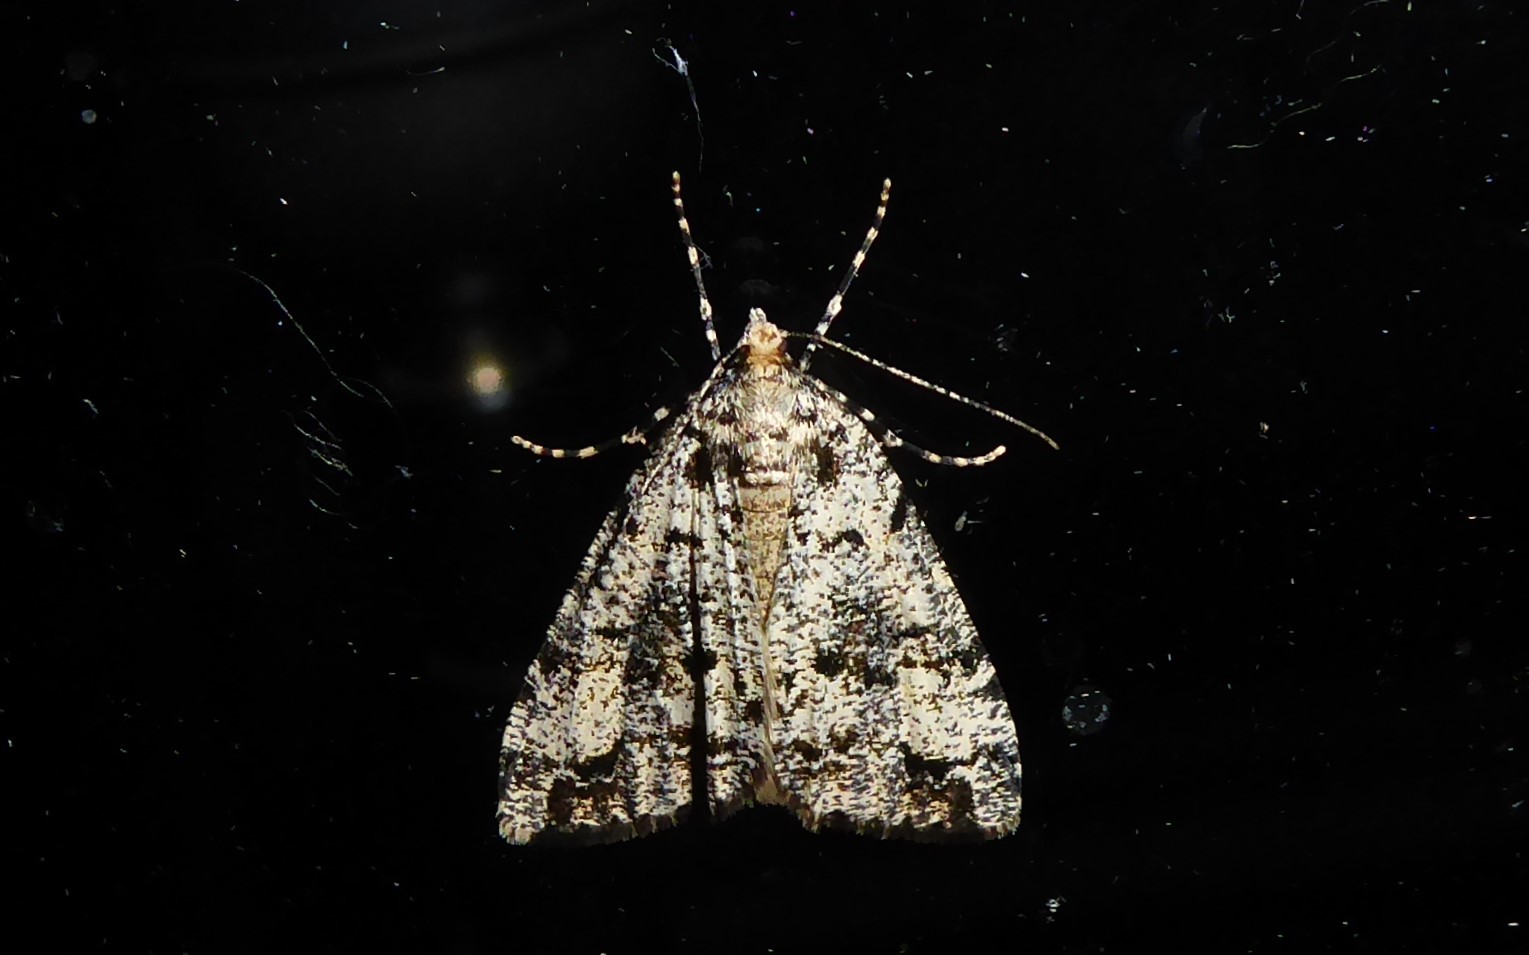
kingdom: Animalia
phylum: Arthropoda
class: Insecta
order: Lepidoptera
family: Geometridae
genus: Pseudocoremia
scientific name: Pseudocoremia leucelaea
